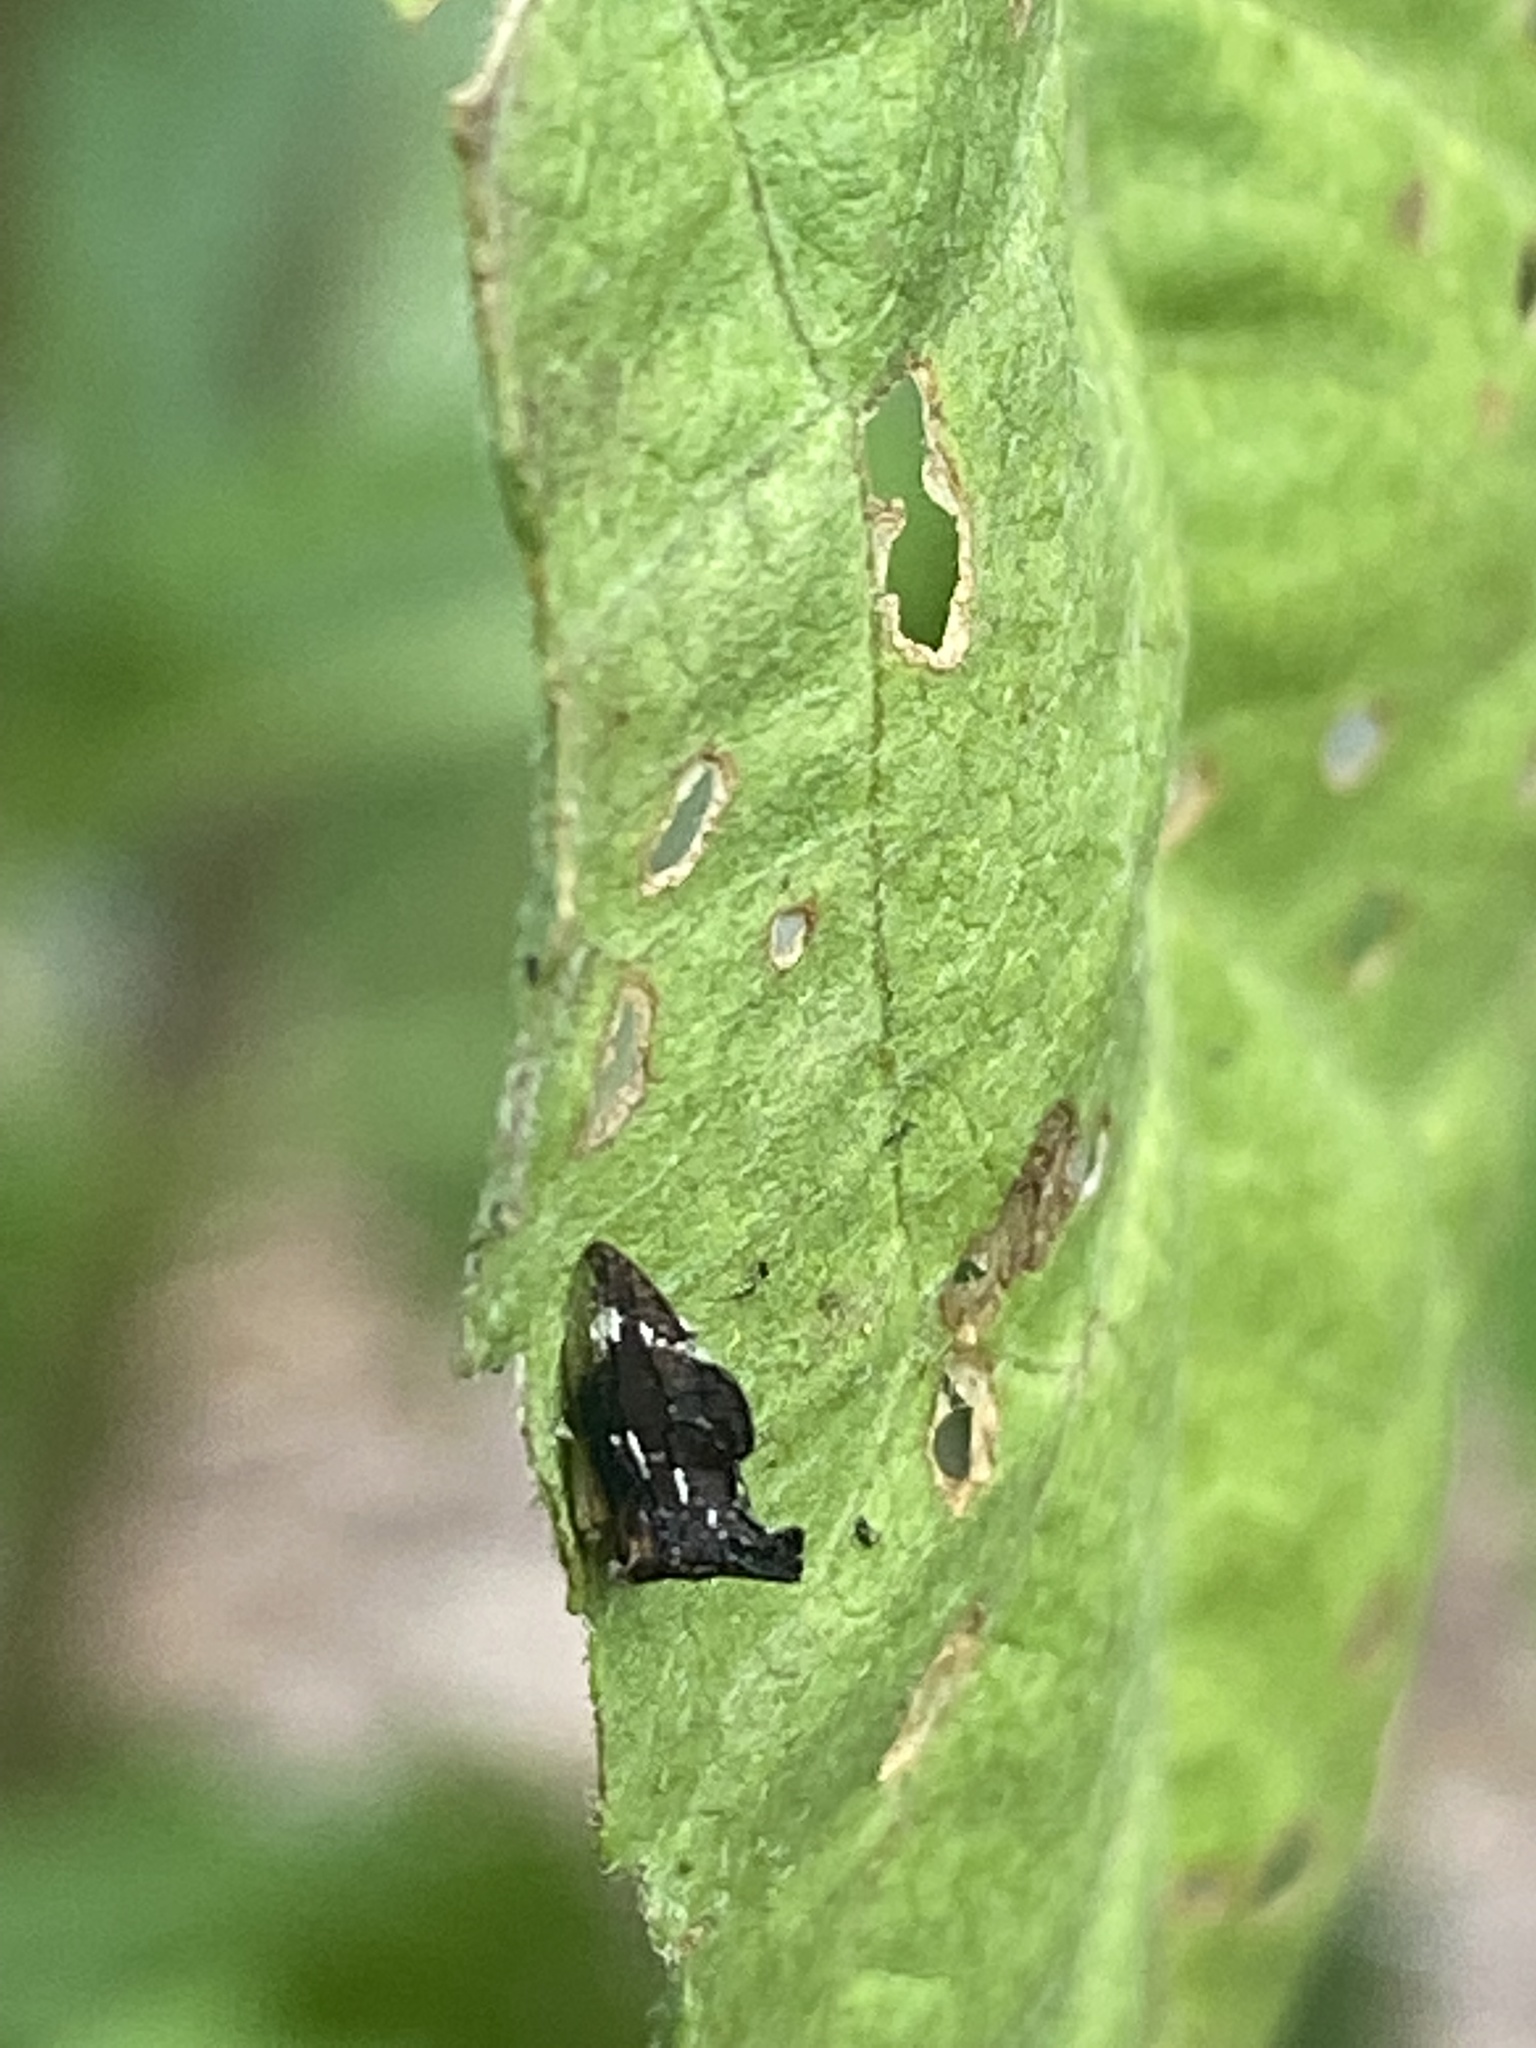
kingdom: Animalia
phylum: Arthropoda
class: Insecta
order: Hemiptera
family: Membracidae
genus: Entylia
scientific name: Entylia carinata
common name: Keeled treehopper
